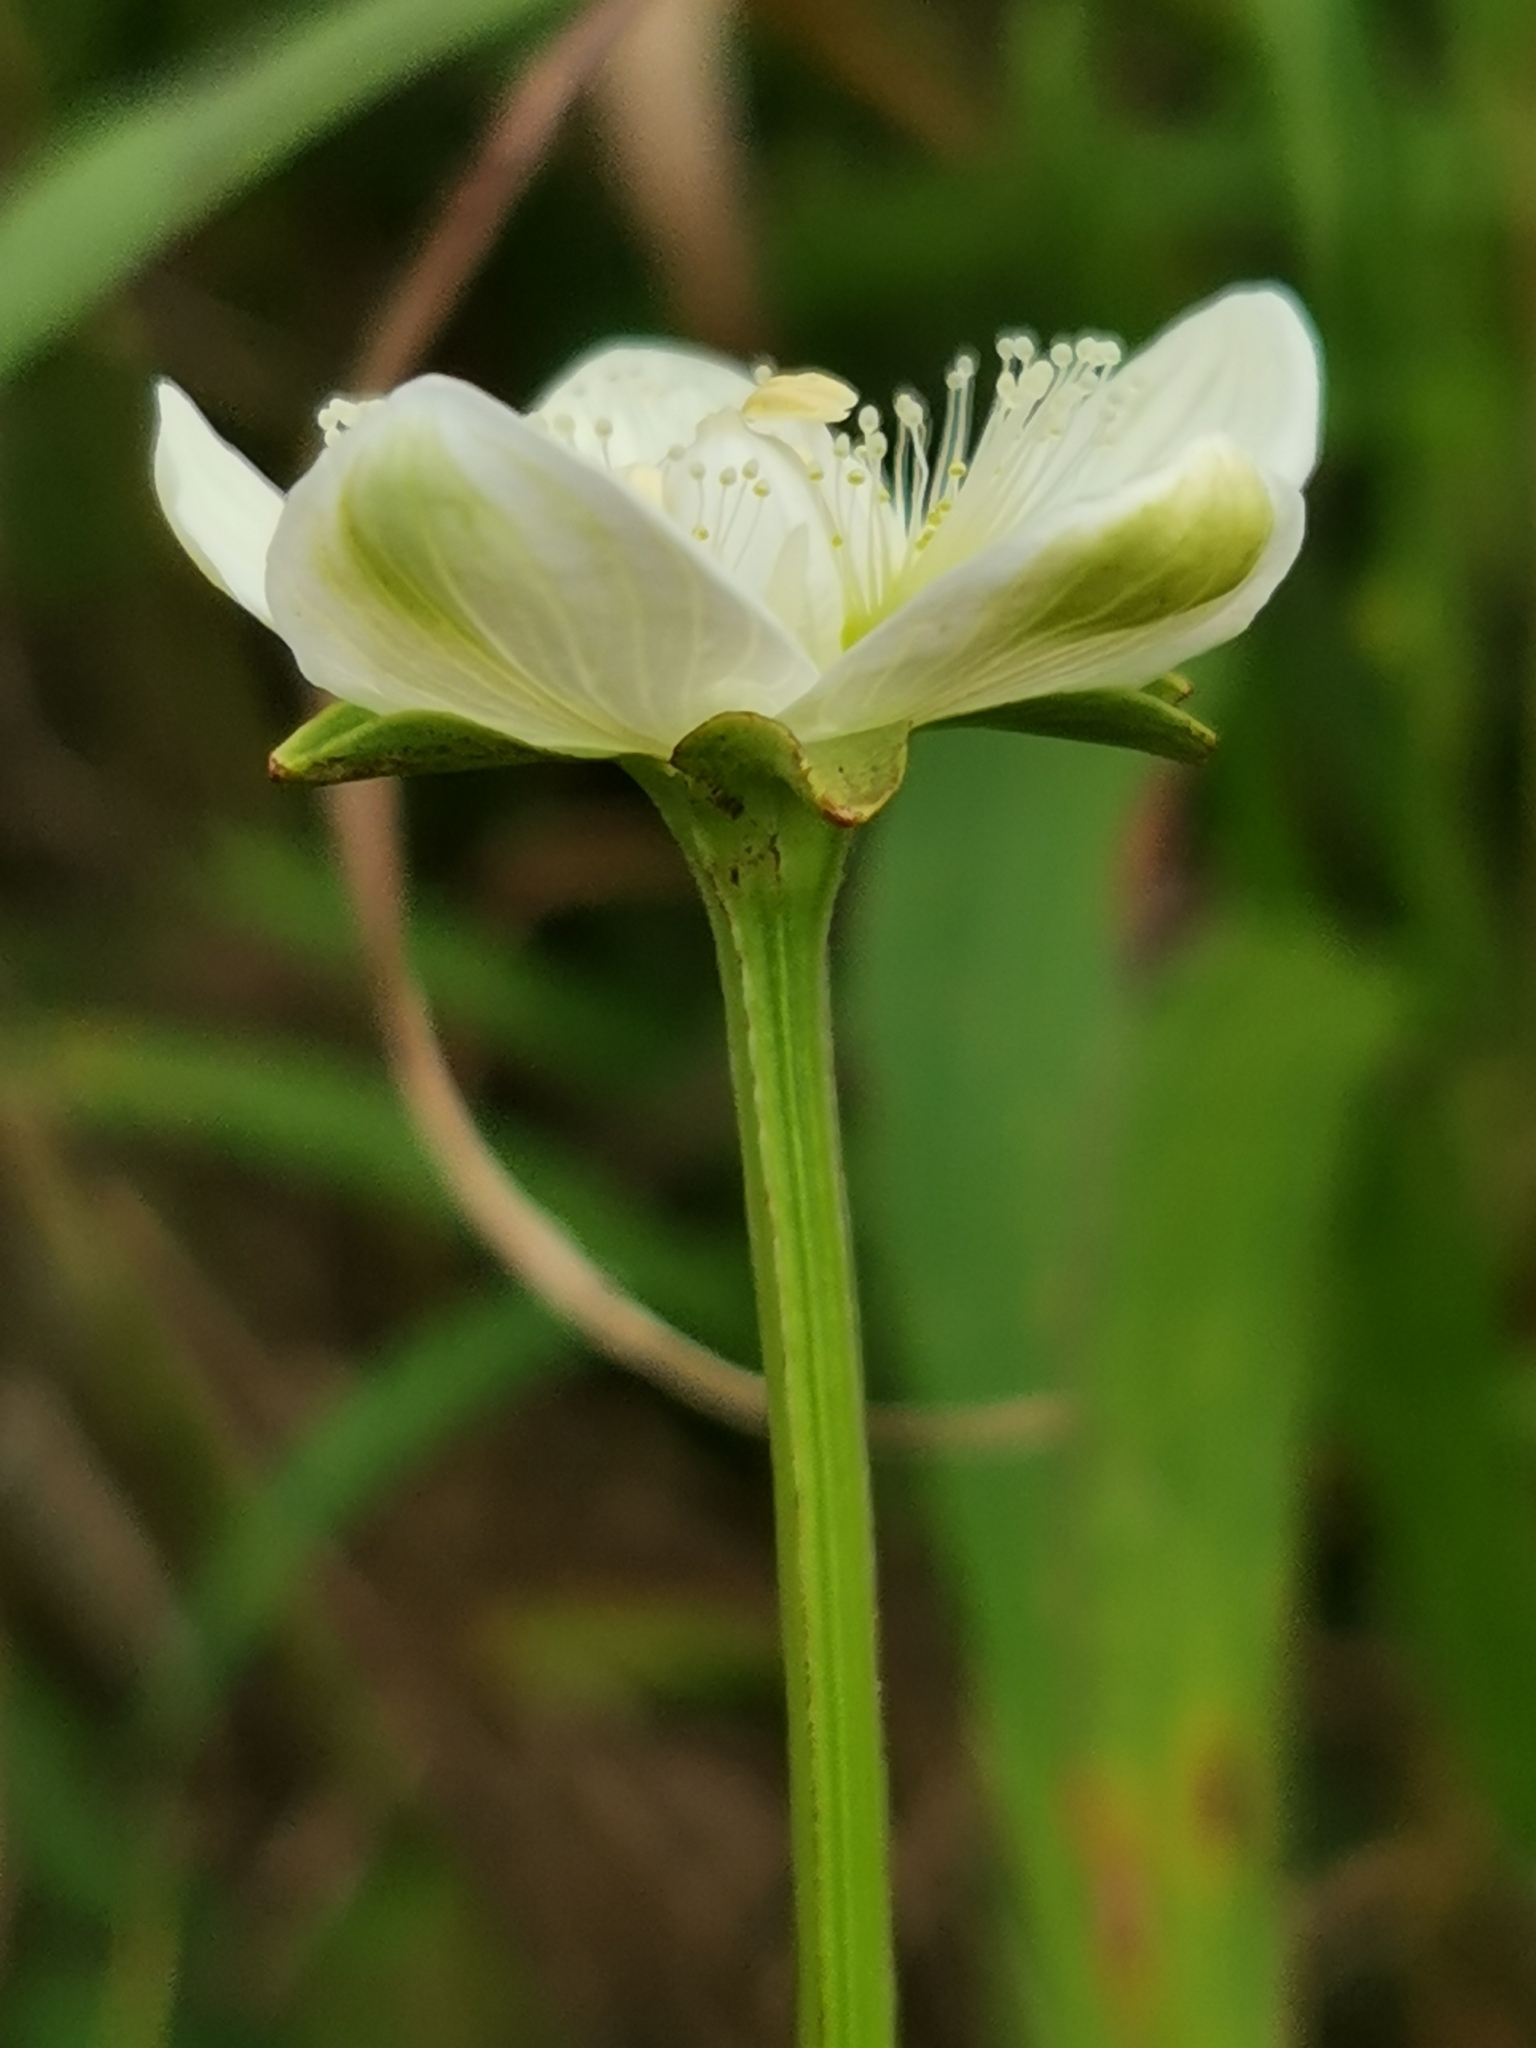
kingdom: Plantae
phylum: Tracheophyta
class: Magnoliopsida
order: Celastrales
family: Parnassiaceae
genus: Parnassia
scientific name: Parnassia palustris
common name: Grass-of-parnassus
